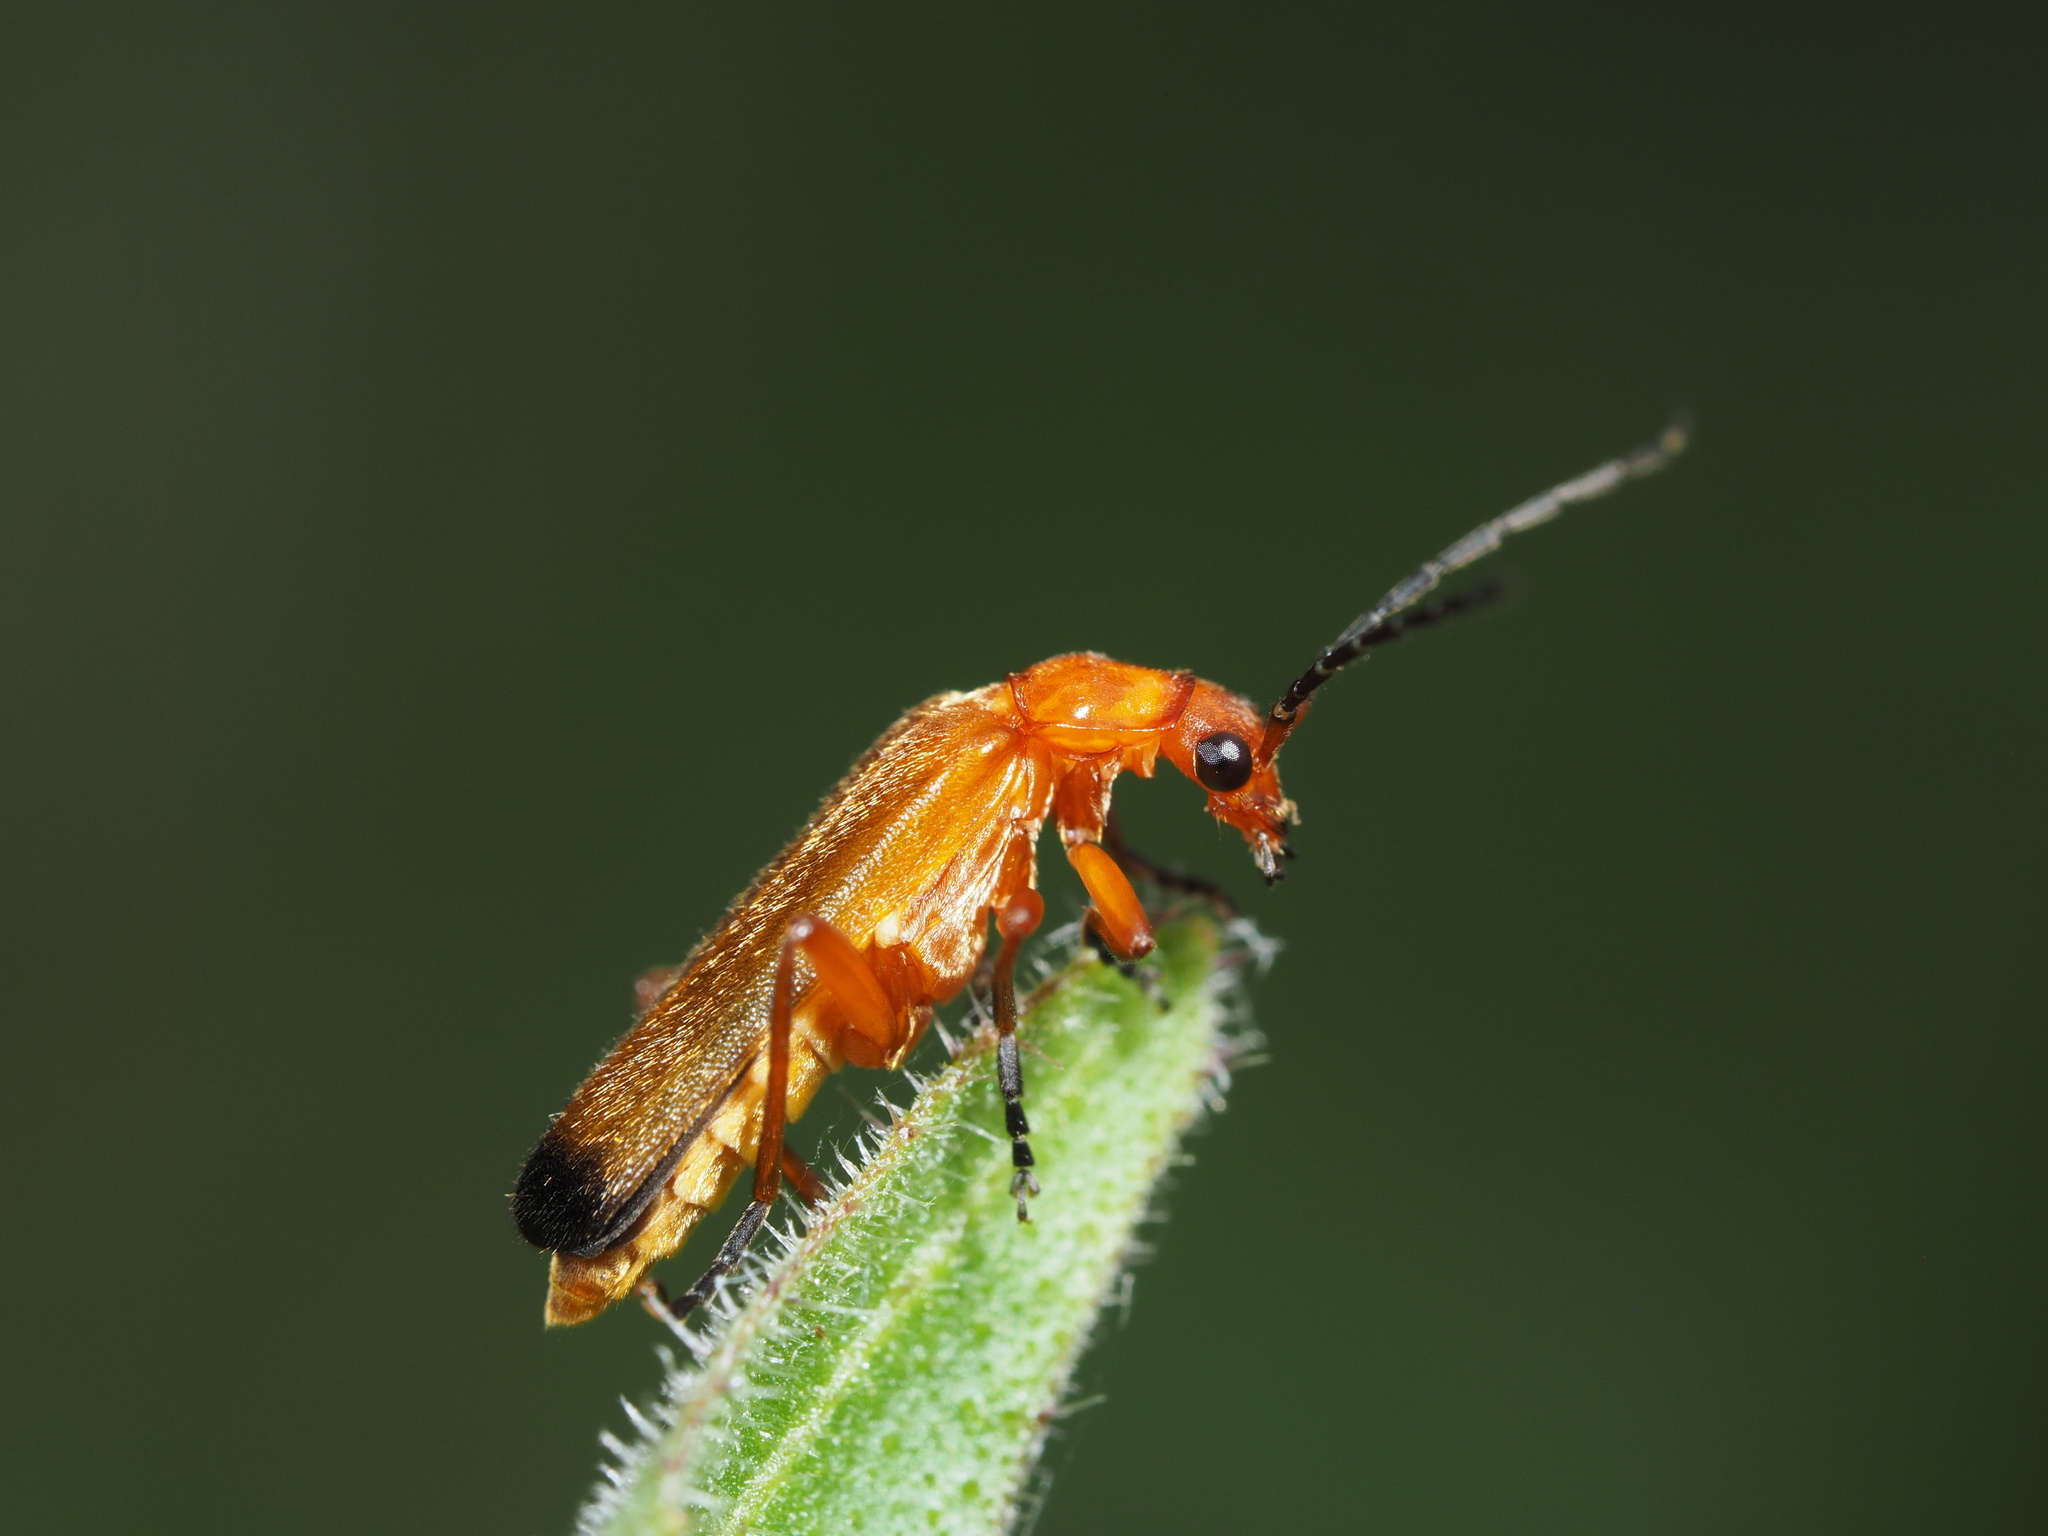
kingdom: Animalia
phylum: Arthropoda
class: Insecta
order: Coleoptera
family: Cantharidae
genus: Rhagonycha
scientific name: Rhagonycha fulva
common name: Common red soldier beetle
